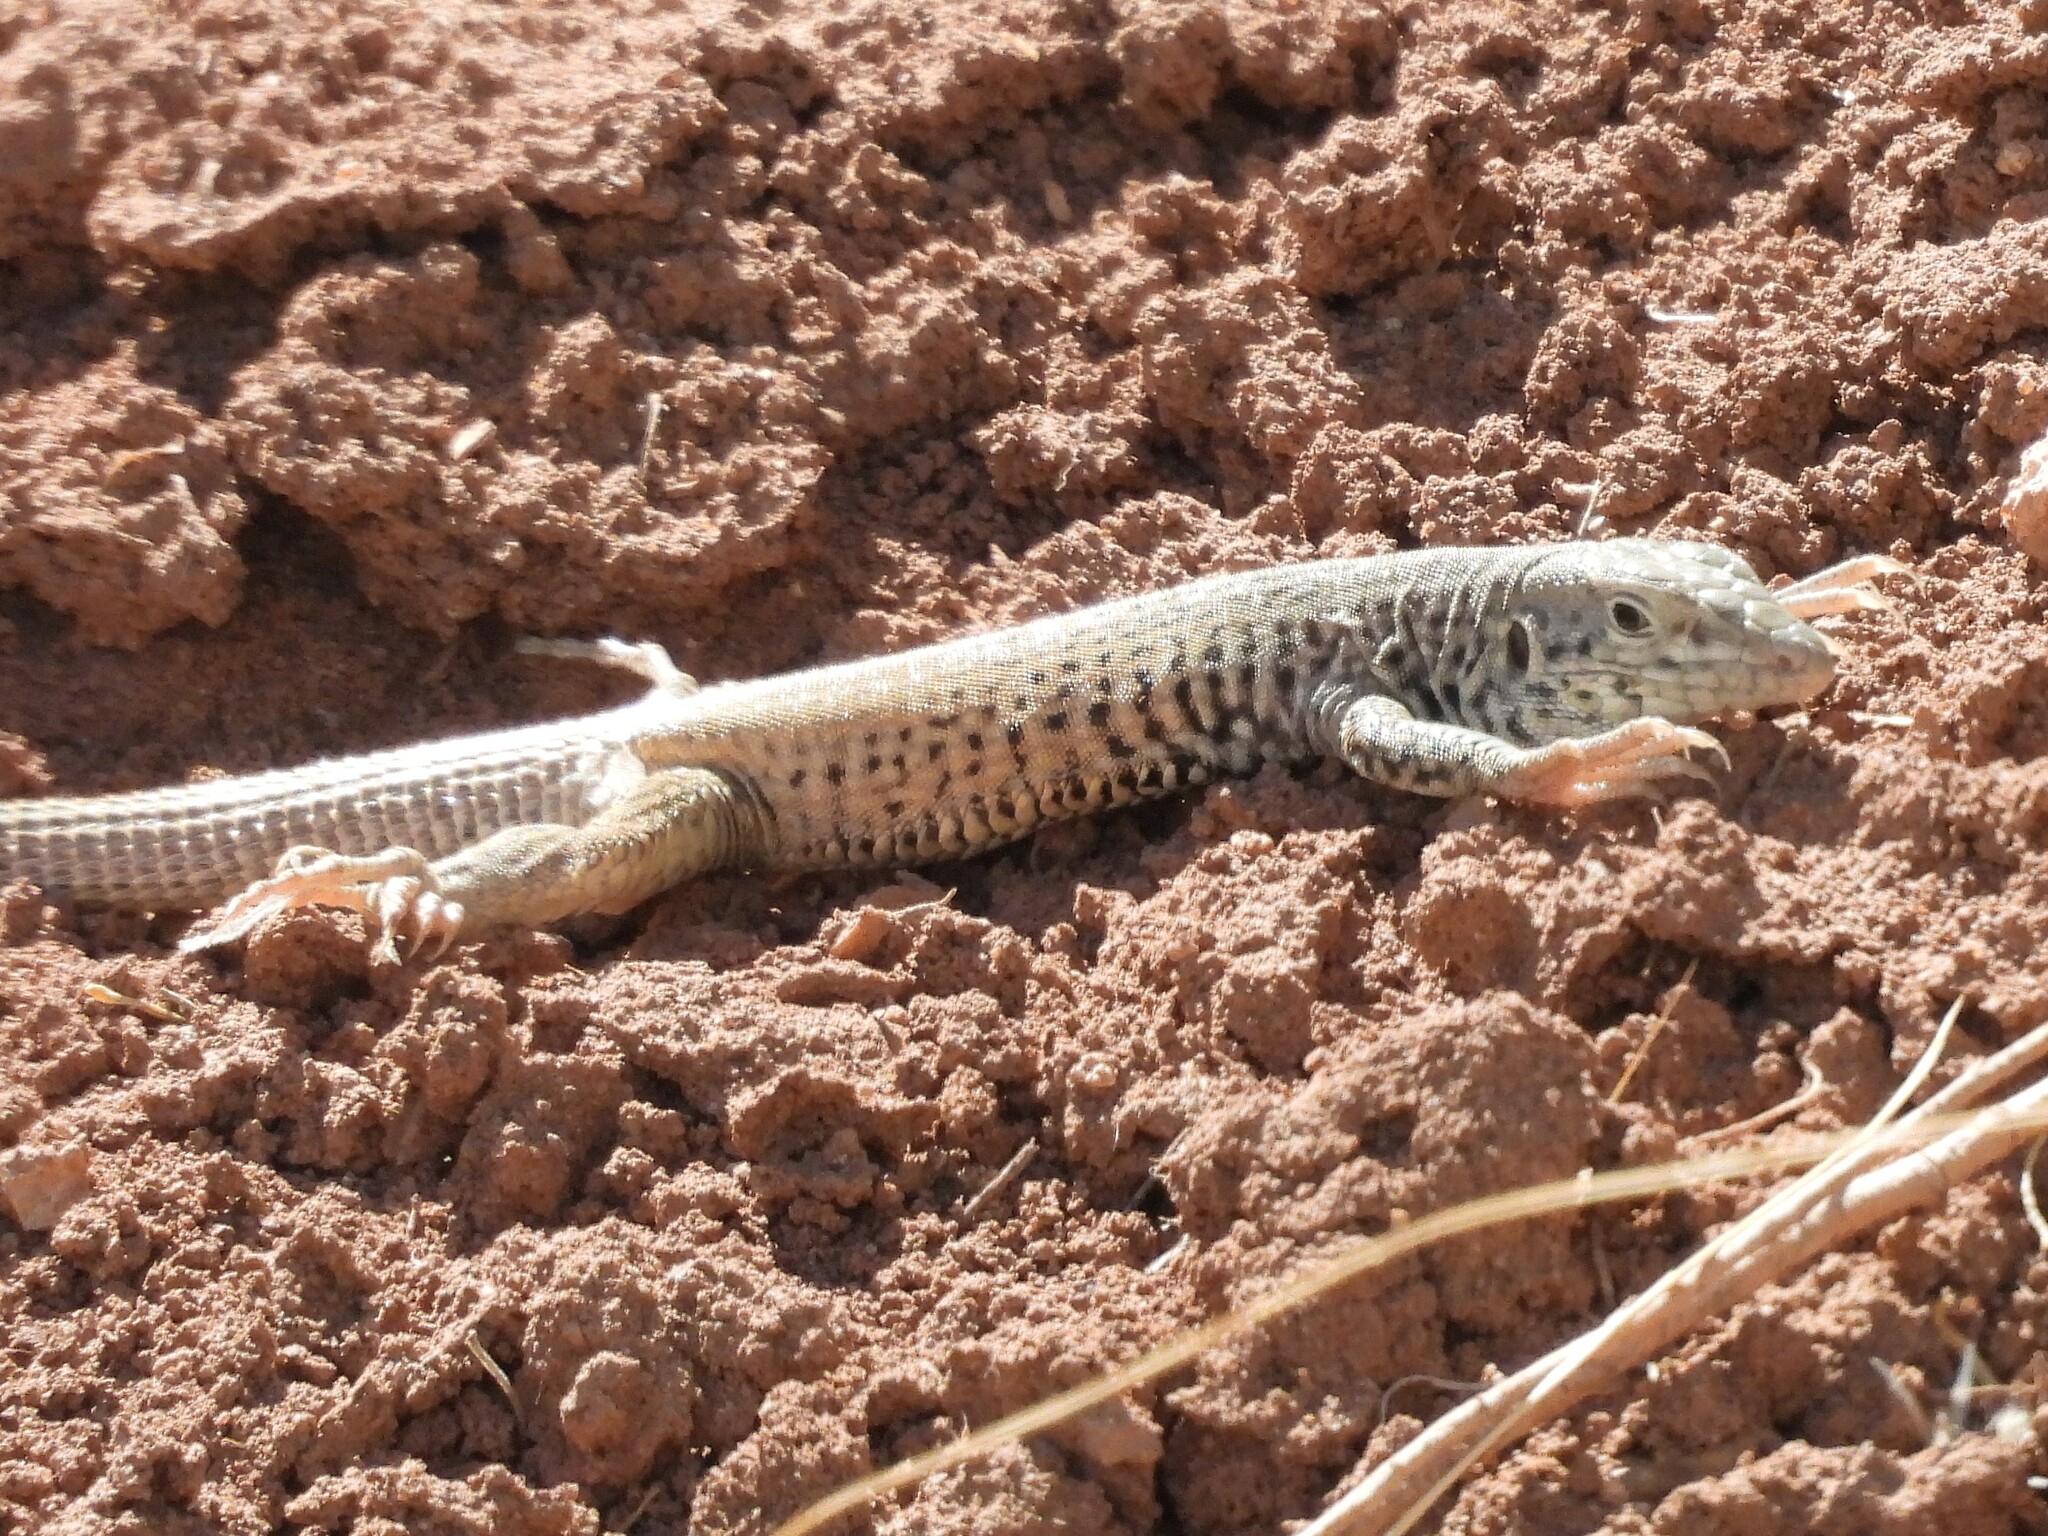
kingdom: Animalia
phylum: Chordata
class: Squamata
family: Teiidae
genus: Aspidoscelis
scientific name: Aspidoscelis tigris
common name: Tiger whiptail
